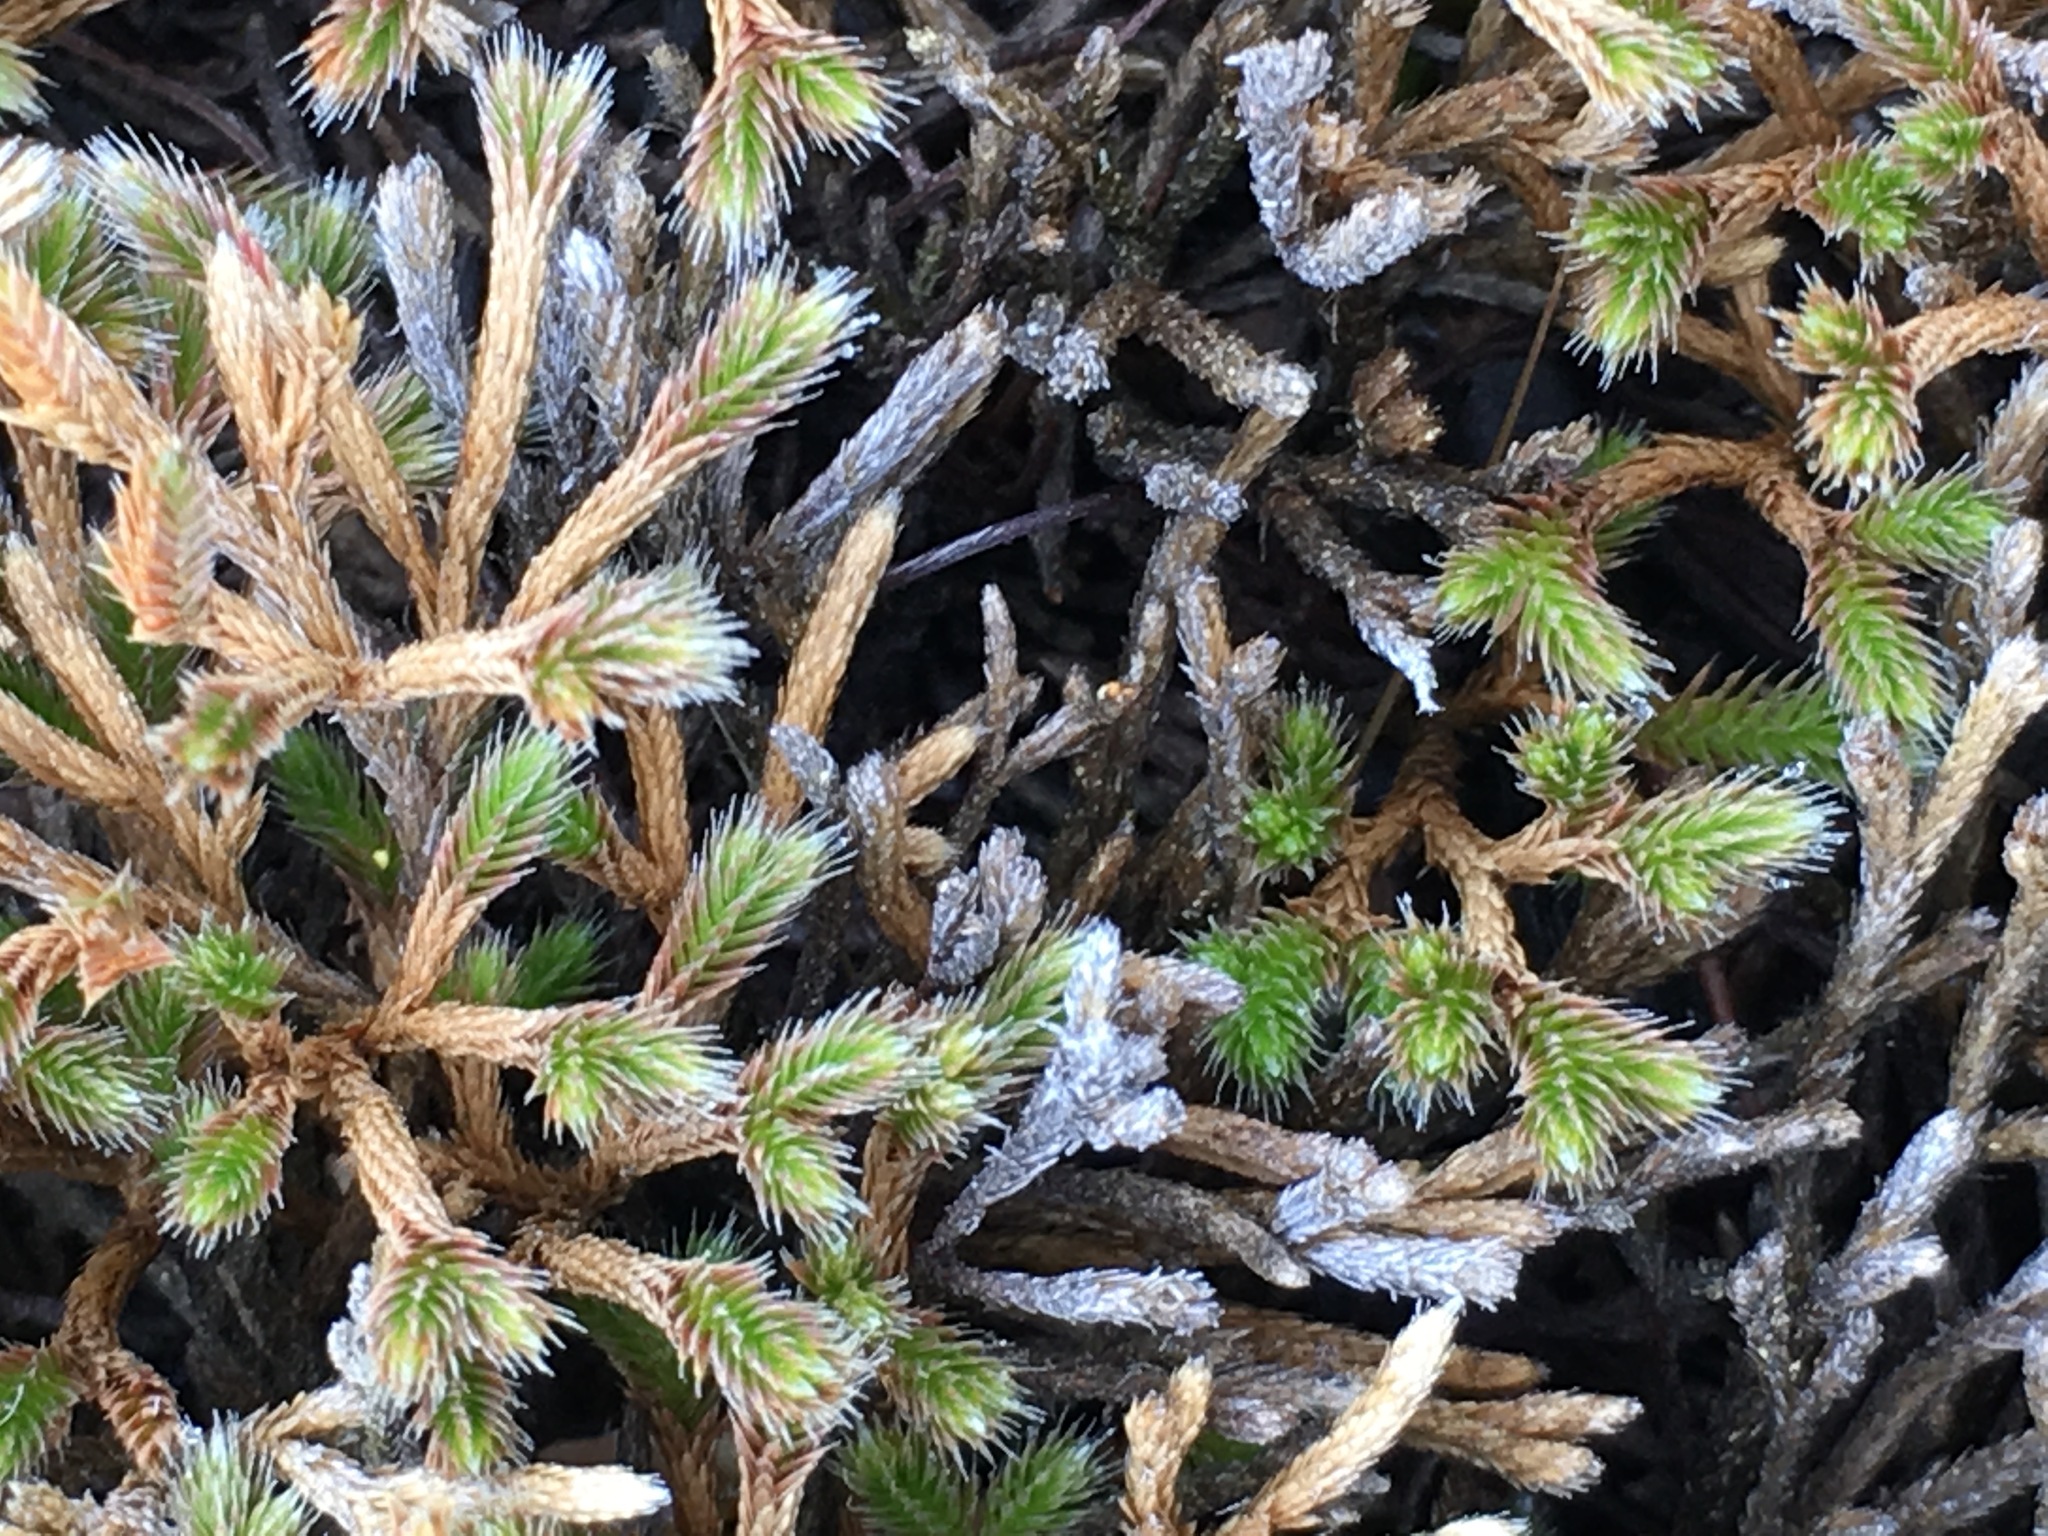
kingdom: Plantae
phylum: Tracheophyta
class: Lycopodiopsida
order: Selaginellales
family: Selaginellaceae
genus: Selaginella
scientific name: Selaginella bigelovii
